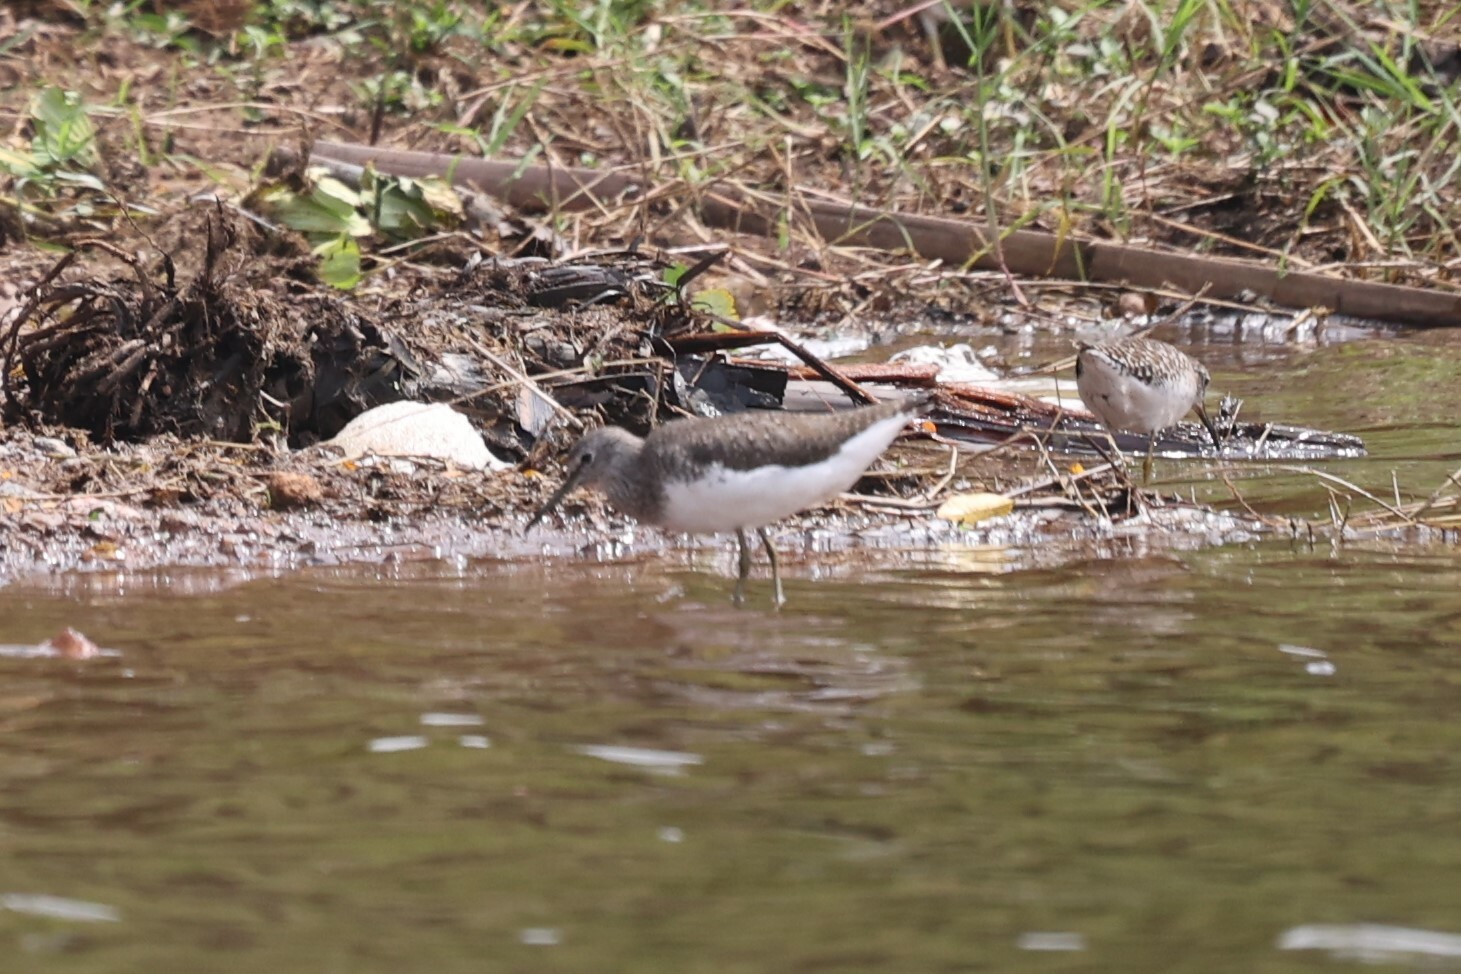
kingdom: Animalia
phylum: Chordata
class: Aves
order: Charadriiformes
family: Scolopacidae
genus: Tringa
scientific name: Tringa ochropus
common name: Green sandpiper
